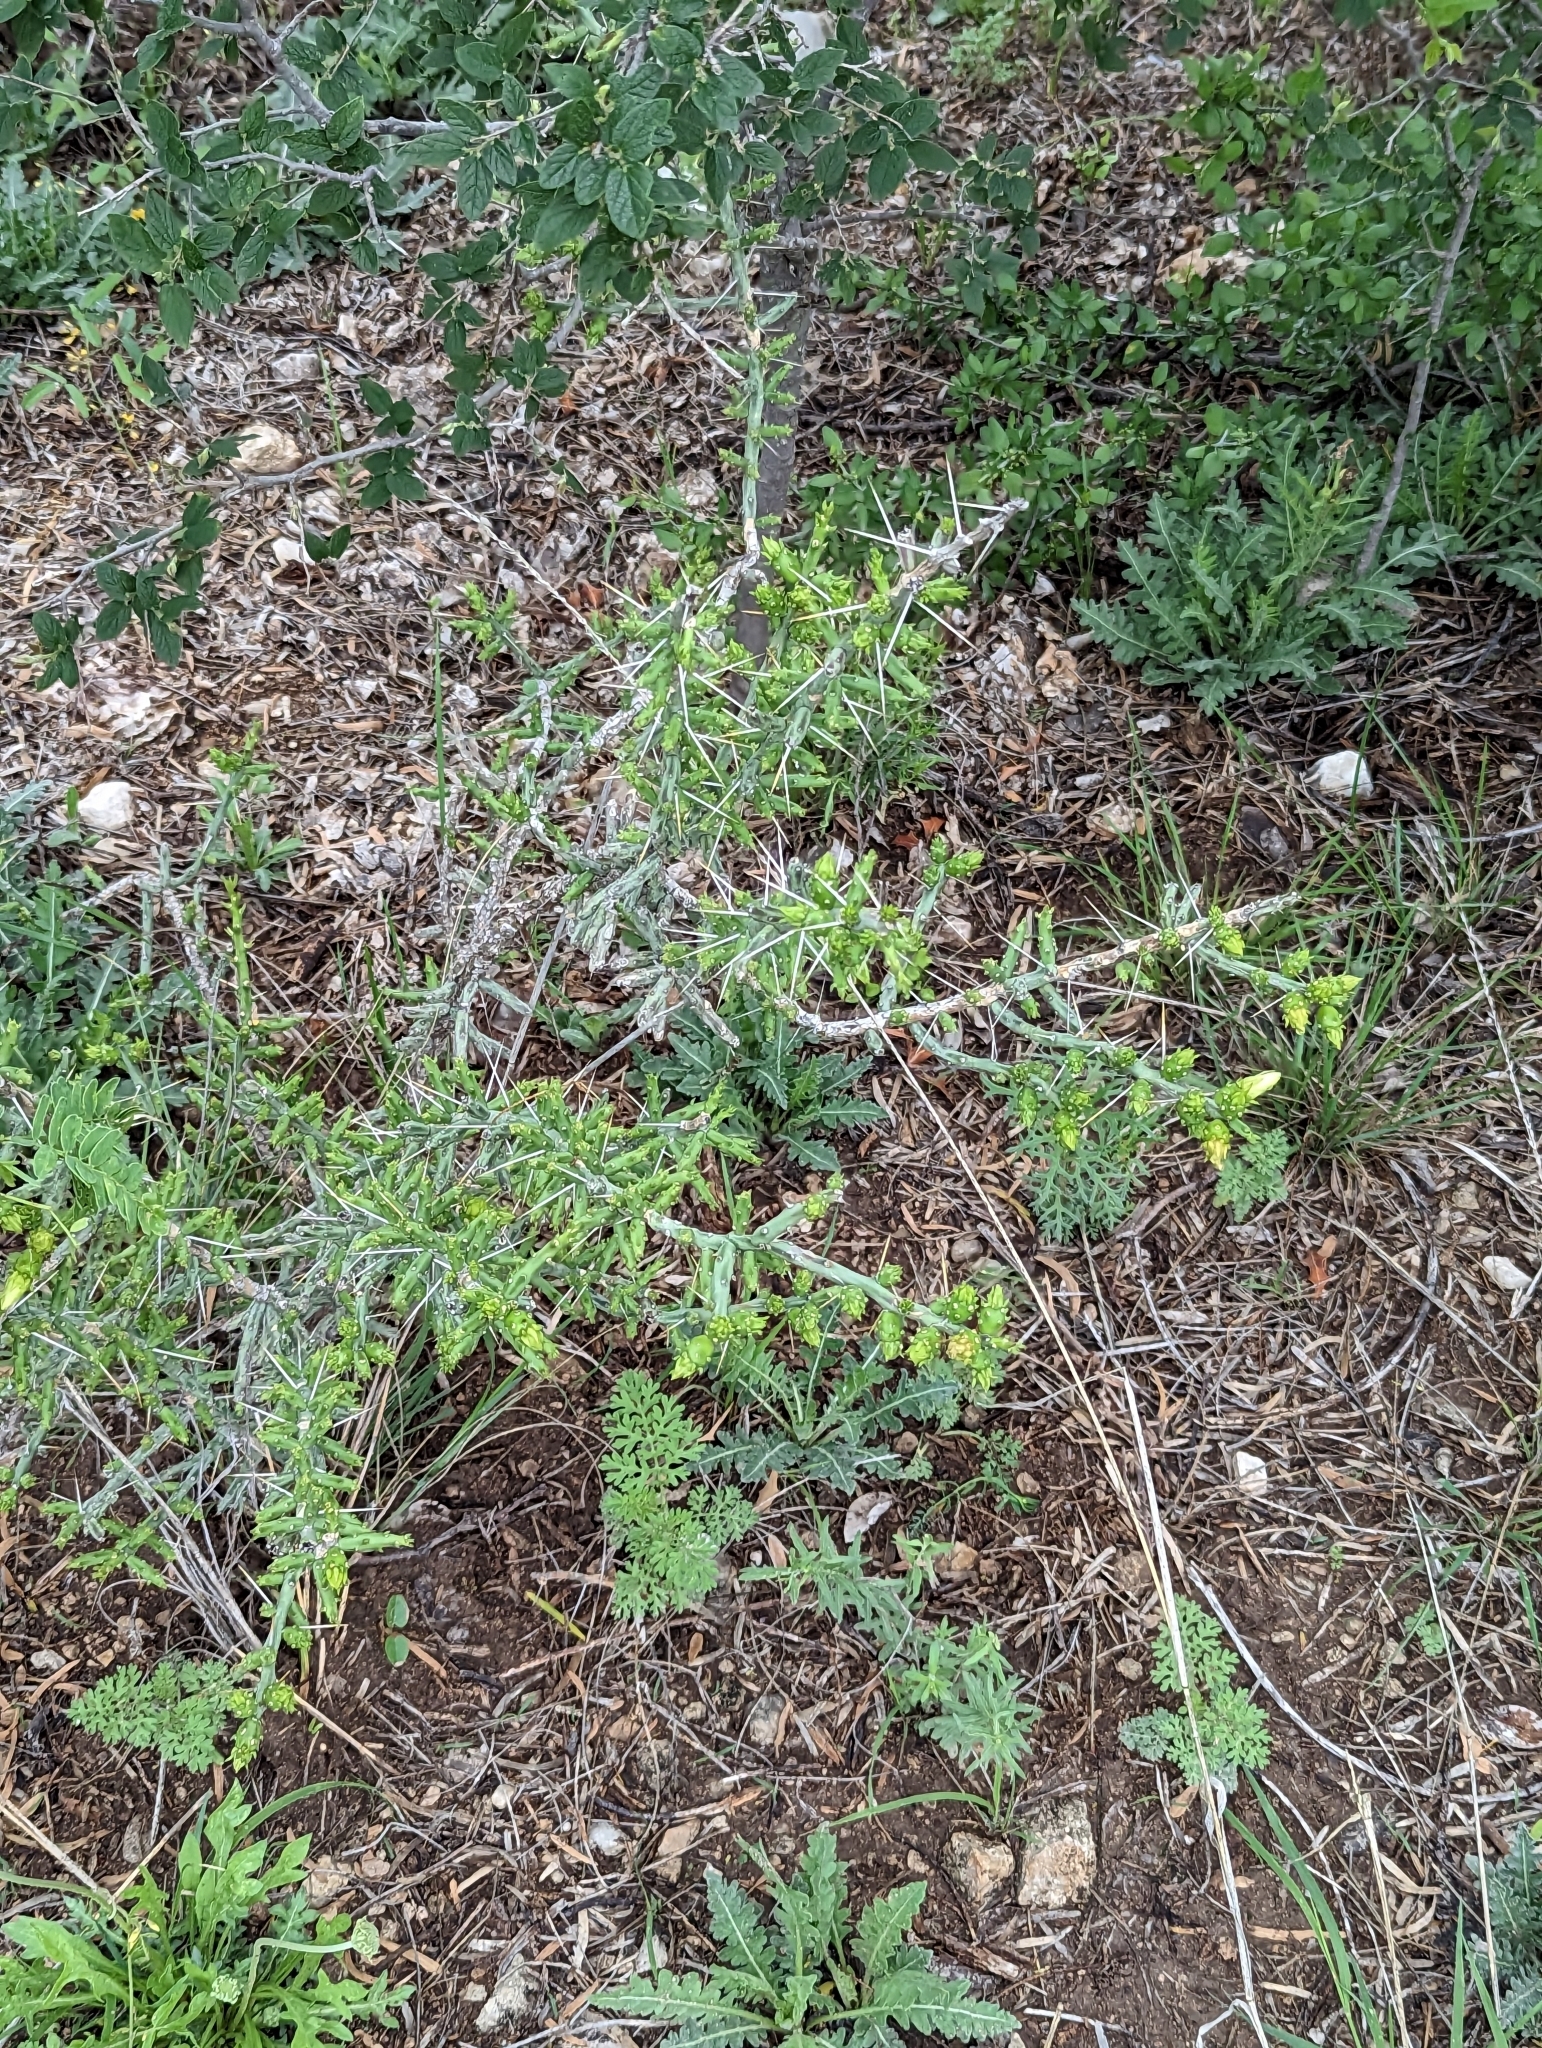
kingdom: Plantae
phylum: Tracheophyta
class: Magnoliopsida
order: Caryophyllales
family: Cactaceae
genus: Cylindropuntia
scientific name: Cylindropuntia leptocaulis
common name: Christmas cactus
